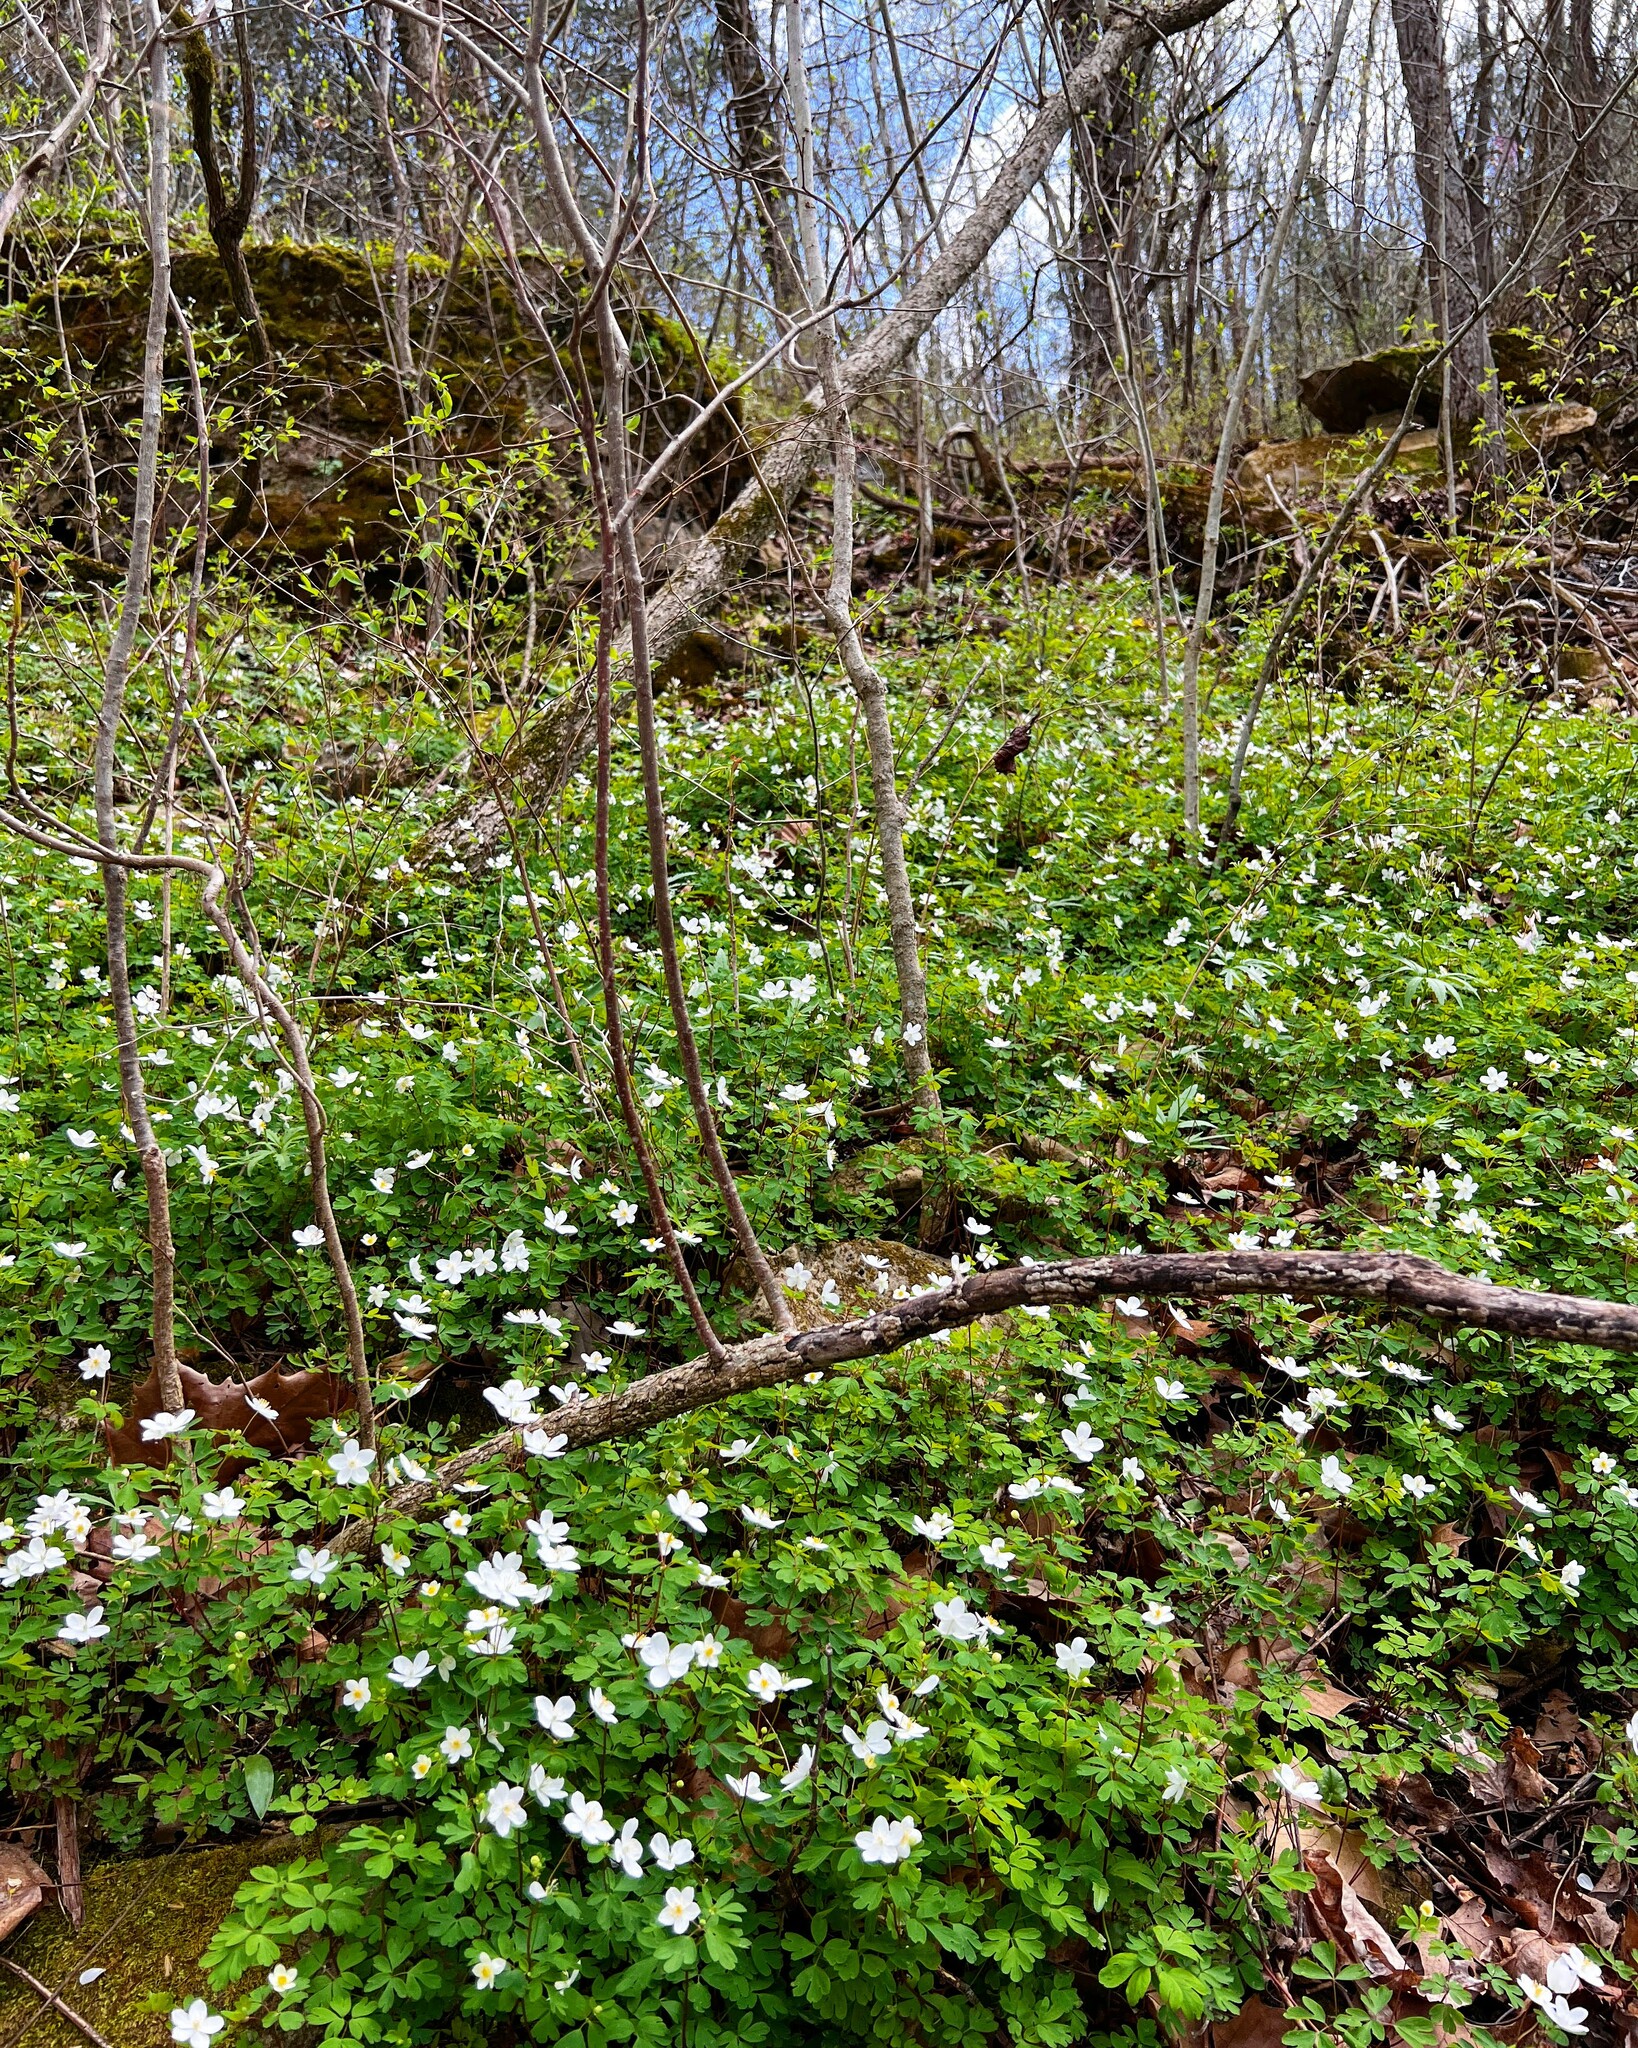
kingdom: Plantae
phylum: Tracheophyta
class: Magnoliopsida
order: Ranunculales
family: Ranunculaceae
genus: Enemion
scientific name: Enemion biternatum
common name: Eastern false rue-anemone
